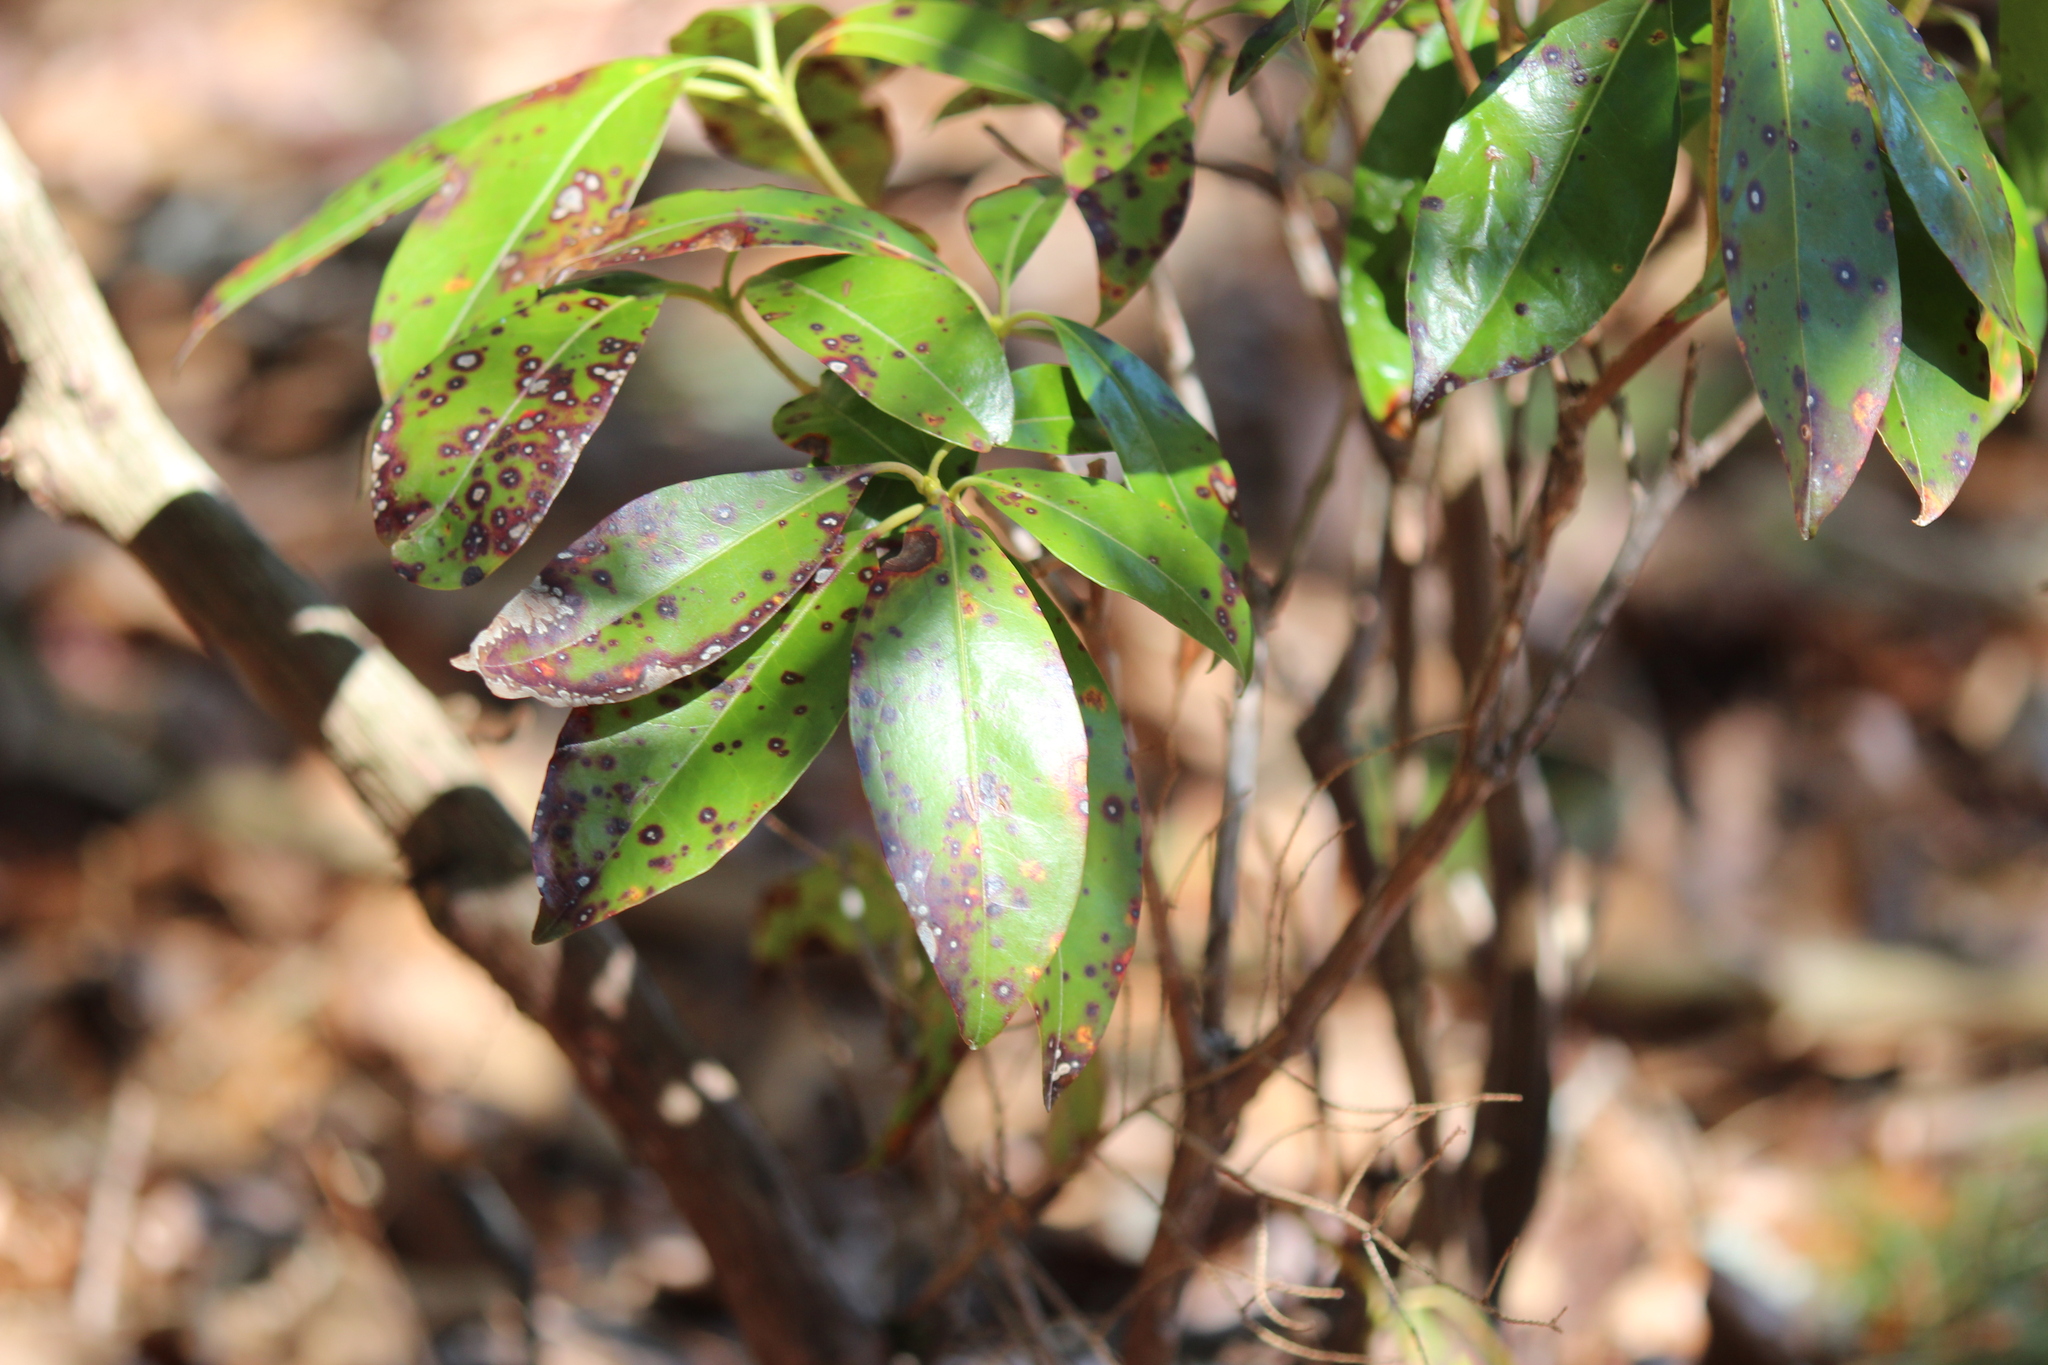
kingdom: Plantae
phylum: Tracheophyta
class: Magnoliopsida
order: Ericales
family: Ericaceae
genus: Kalmia
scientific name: Kalmia latifolia
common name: Mountain-laurel
